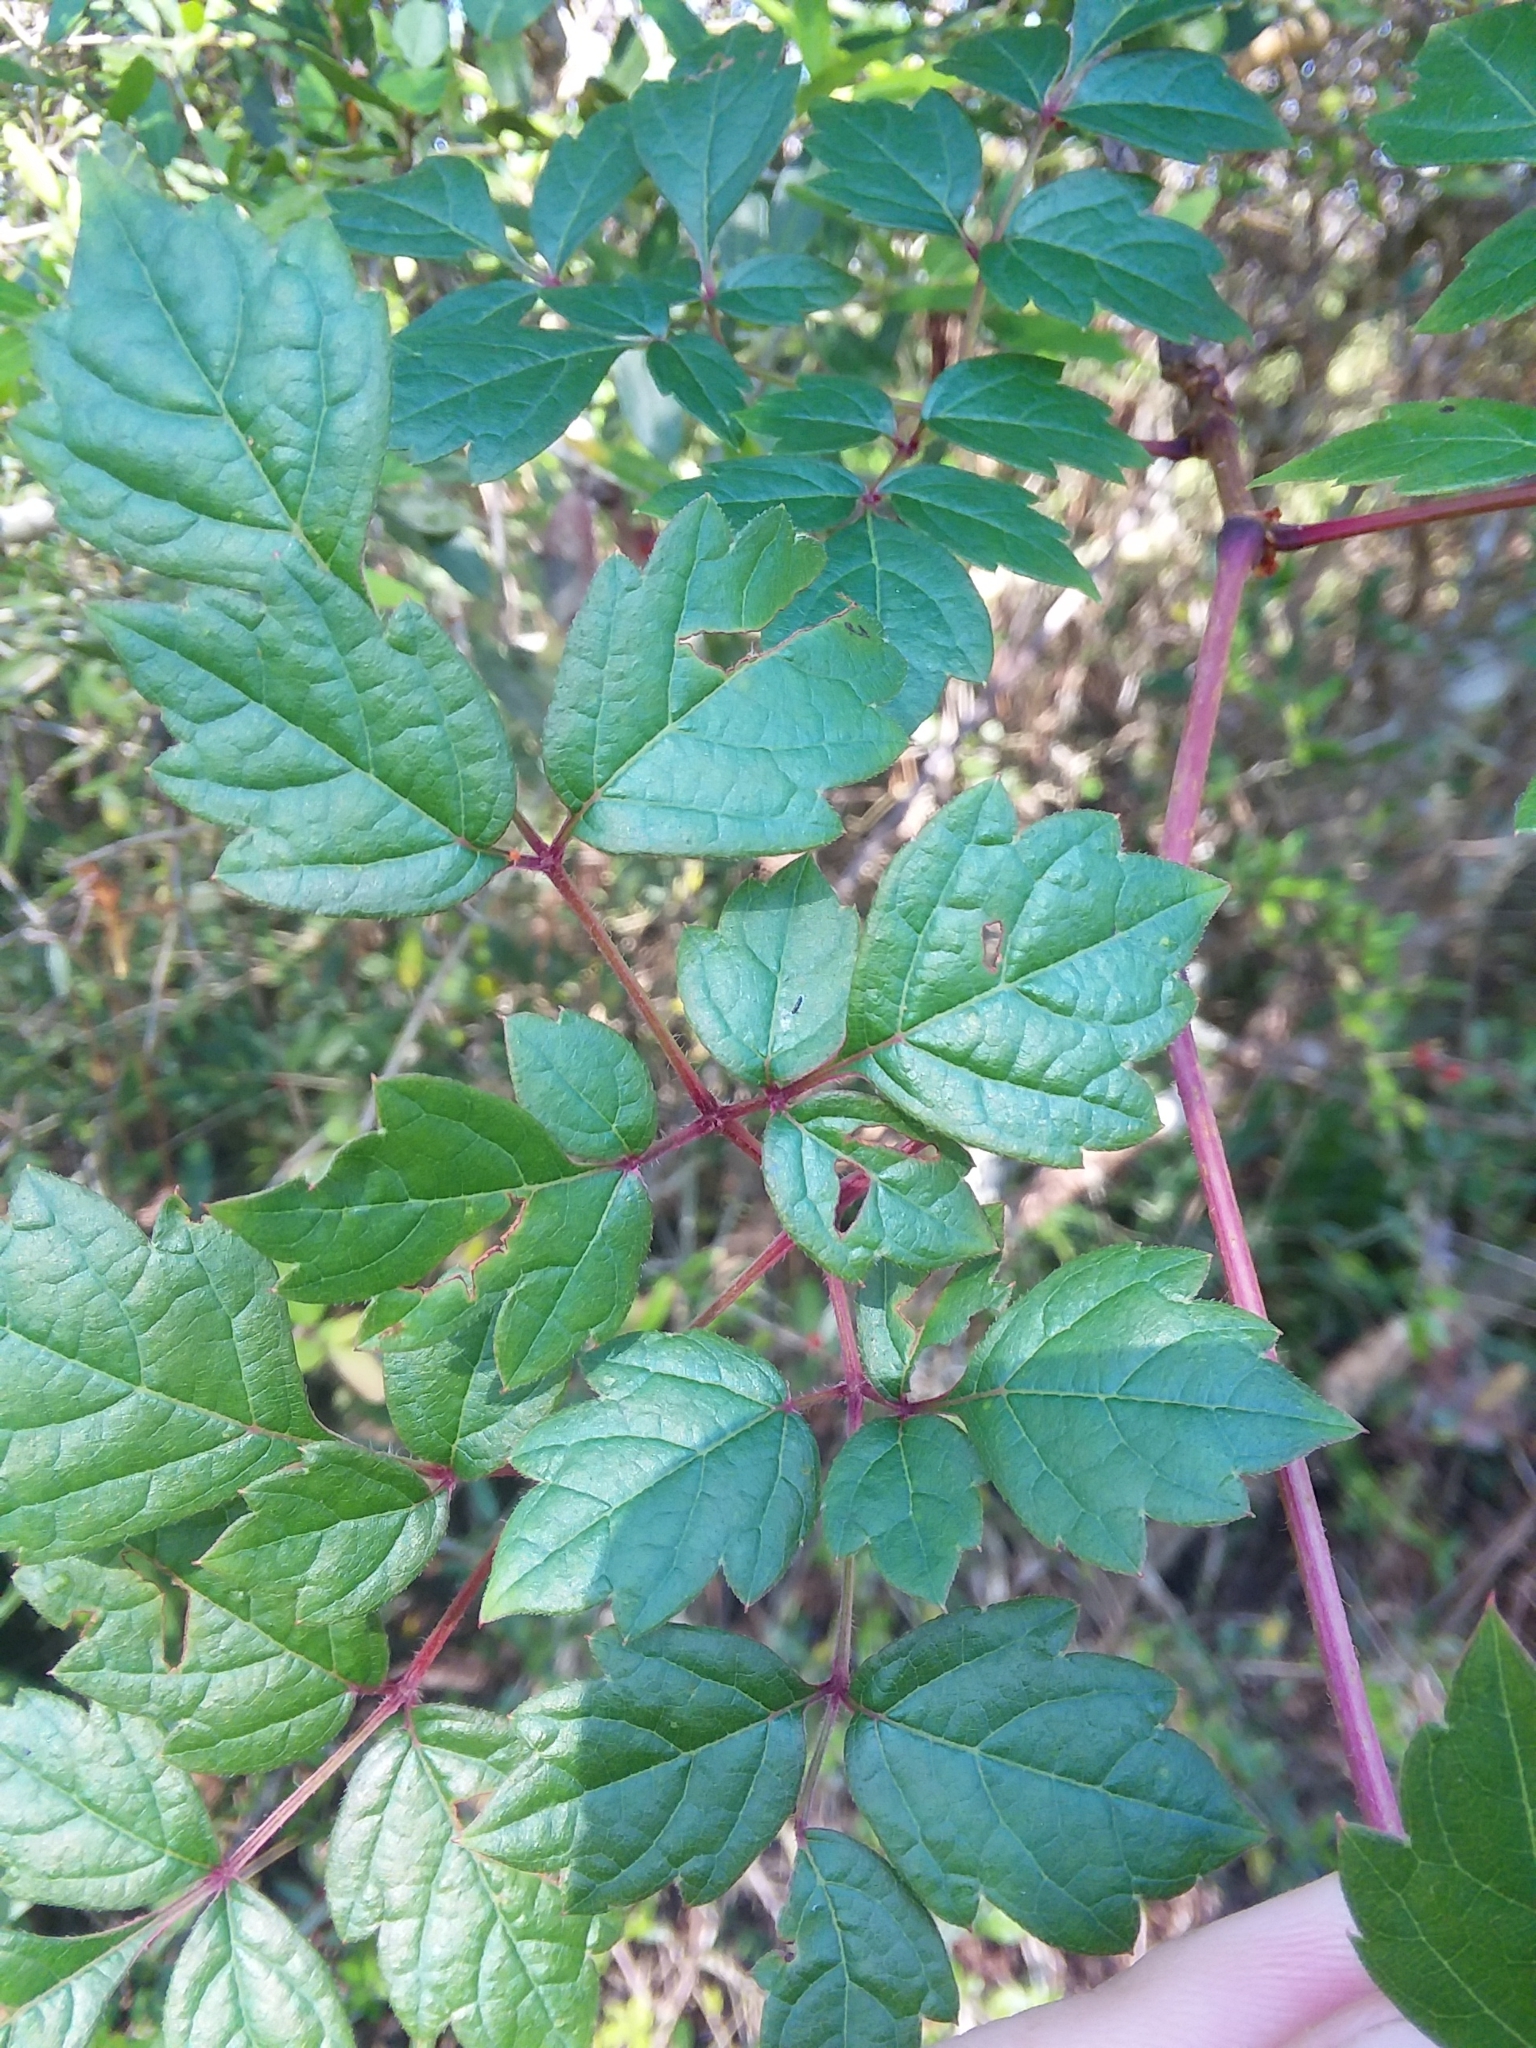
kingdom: Plantae
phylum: Tracheophyta
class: Magnoliopsida
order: Vitales
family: Vitaceae
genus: Nekemias
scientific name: Nekemias arborea
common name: Peppervine
